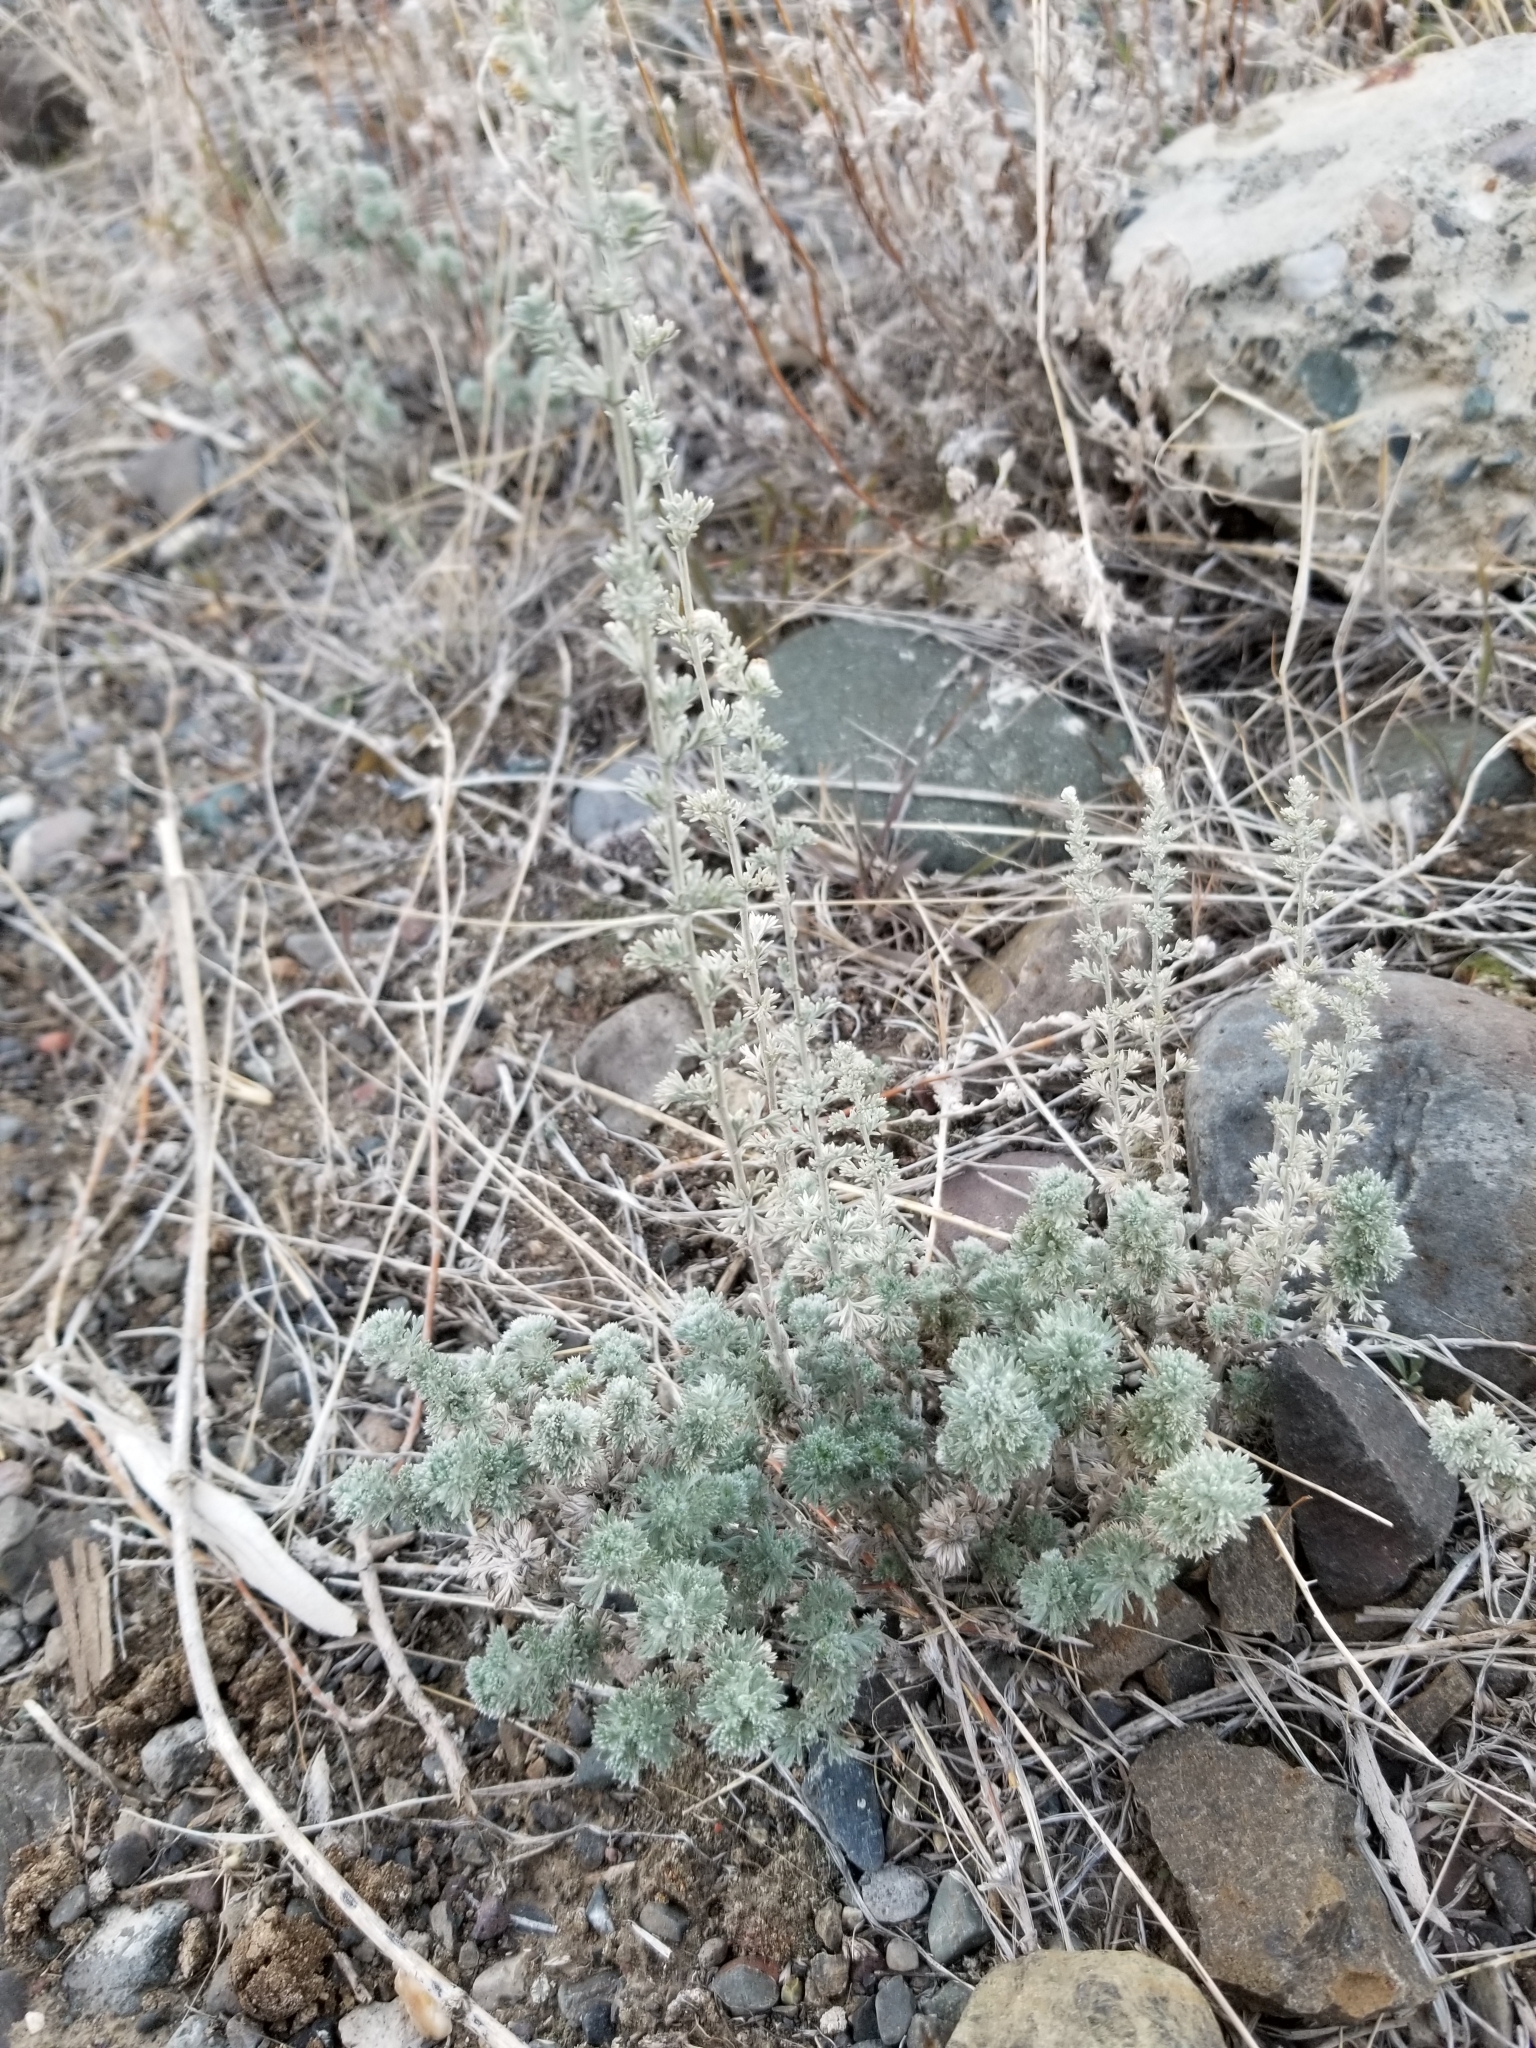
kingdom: Plantae
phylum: Tracheophyta
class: Magnoliopsida
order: Asterales
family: Asteraceae
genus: Artemisia
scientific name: Artemisia frigida
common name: Prairie sagewort
